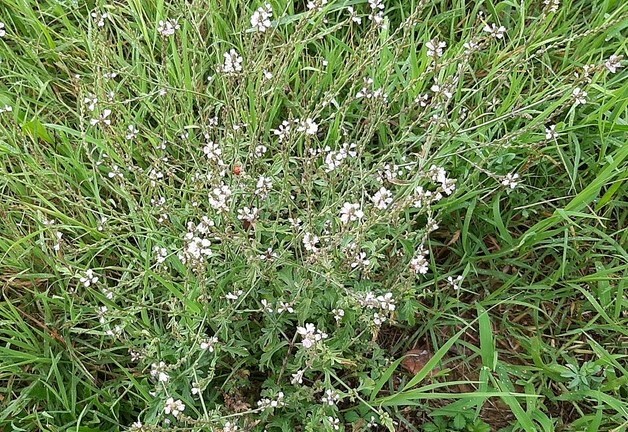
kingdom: Plantae
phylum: Tracheophyta
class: Magnoliopsida
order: Lamiales
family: Verbenaceae
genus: Verbena
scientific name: Verbena officinalis
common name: Vervain
